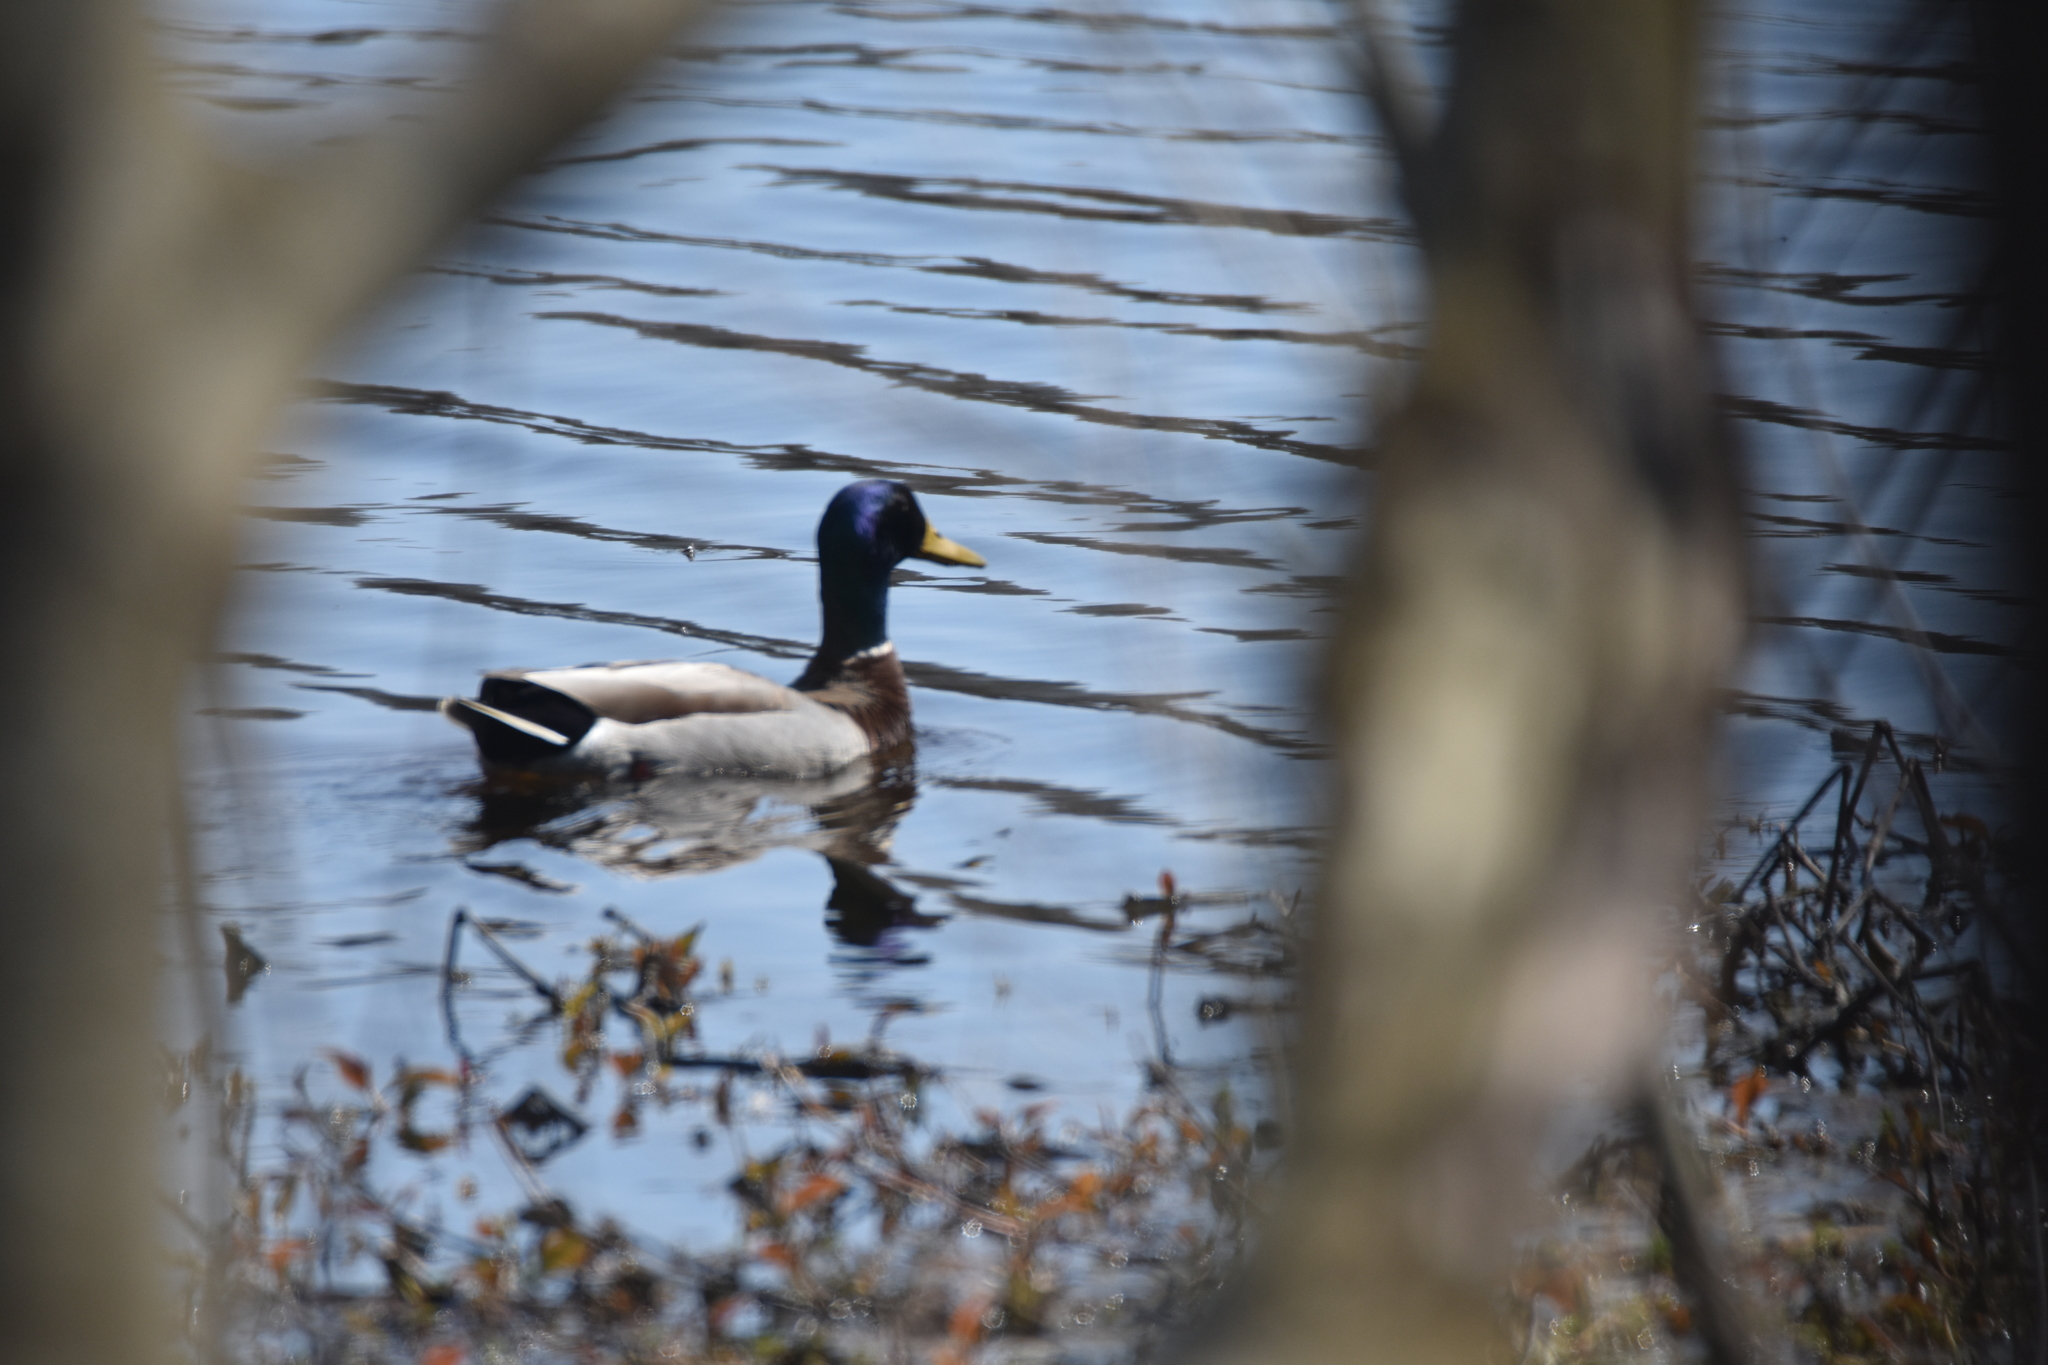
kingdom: Animalia
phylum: Chordata
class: Aves
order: Anseriformes
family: Anatidae
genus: Anas
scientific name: Anas platyrhynchos
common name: Mallard
